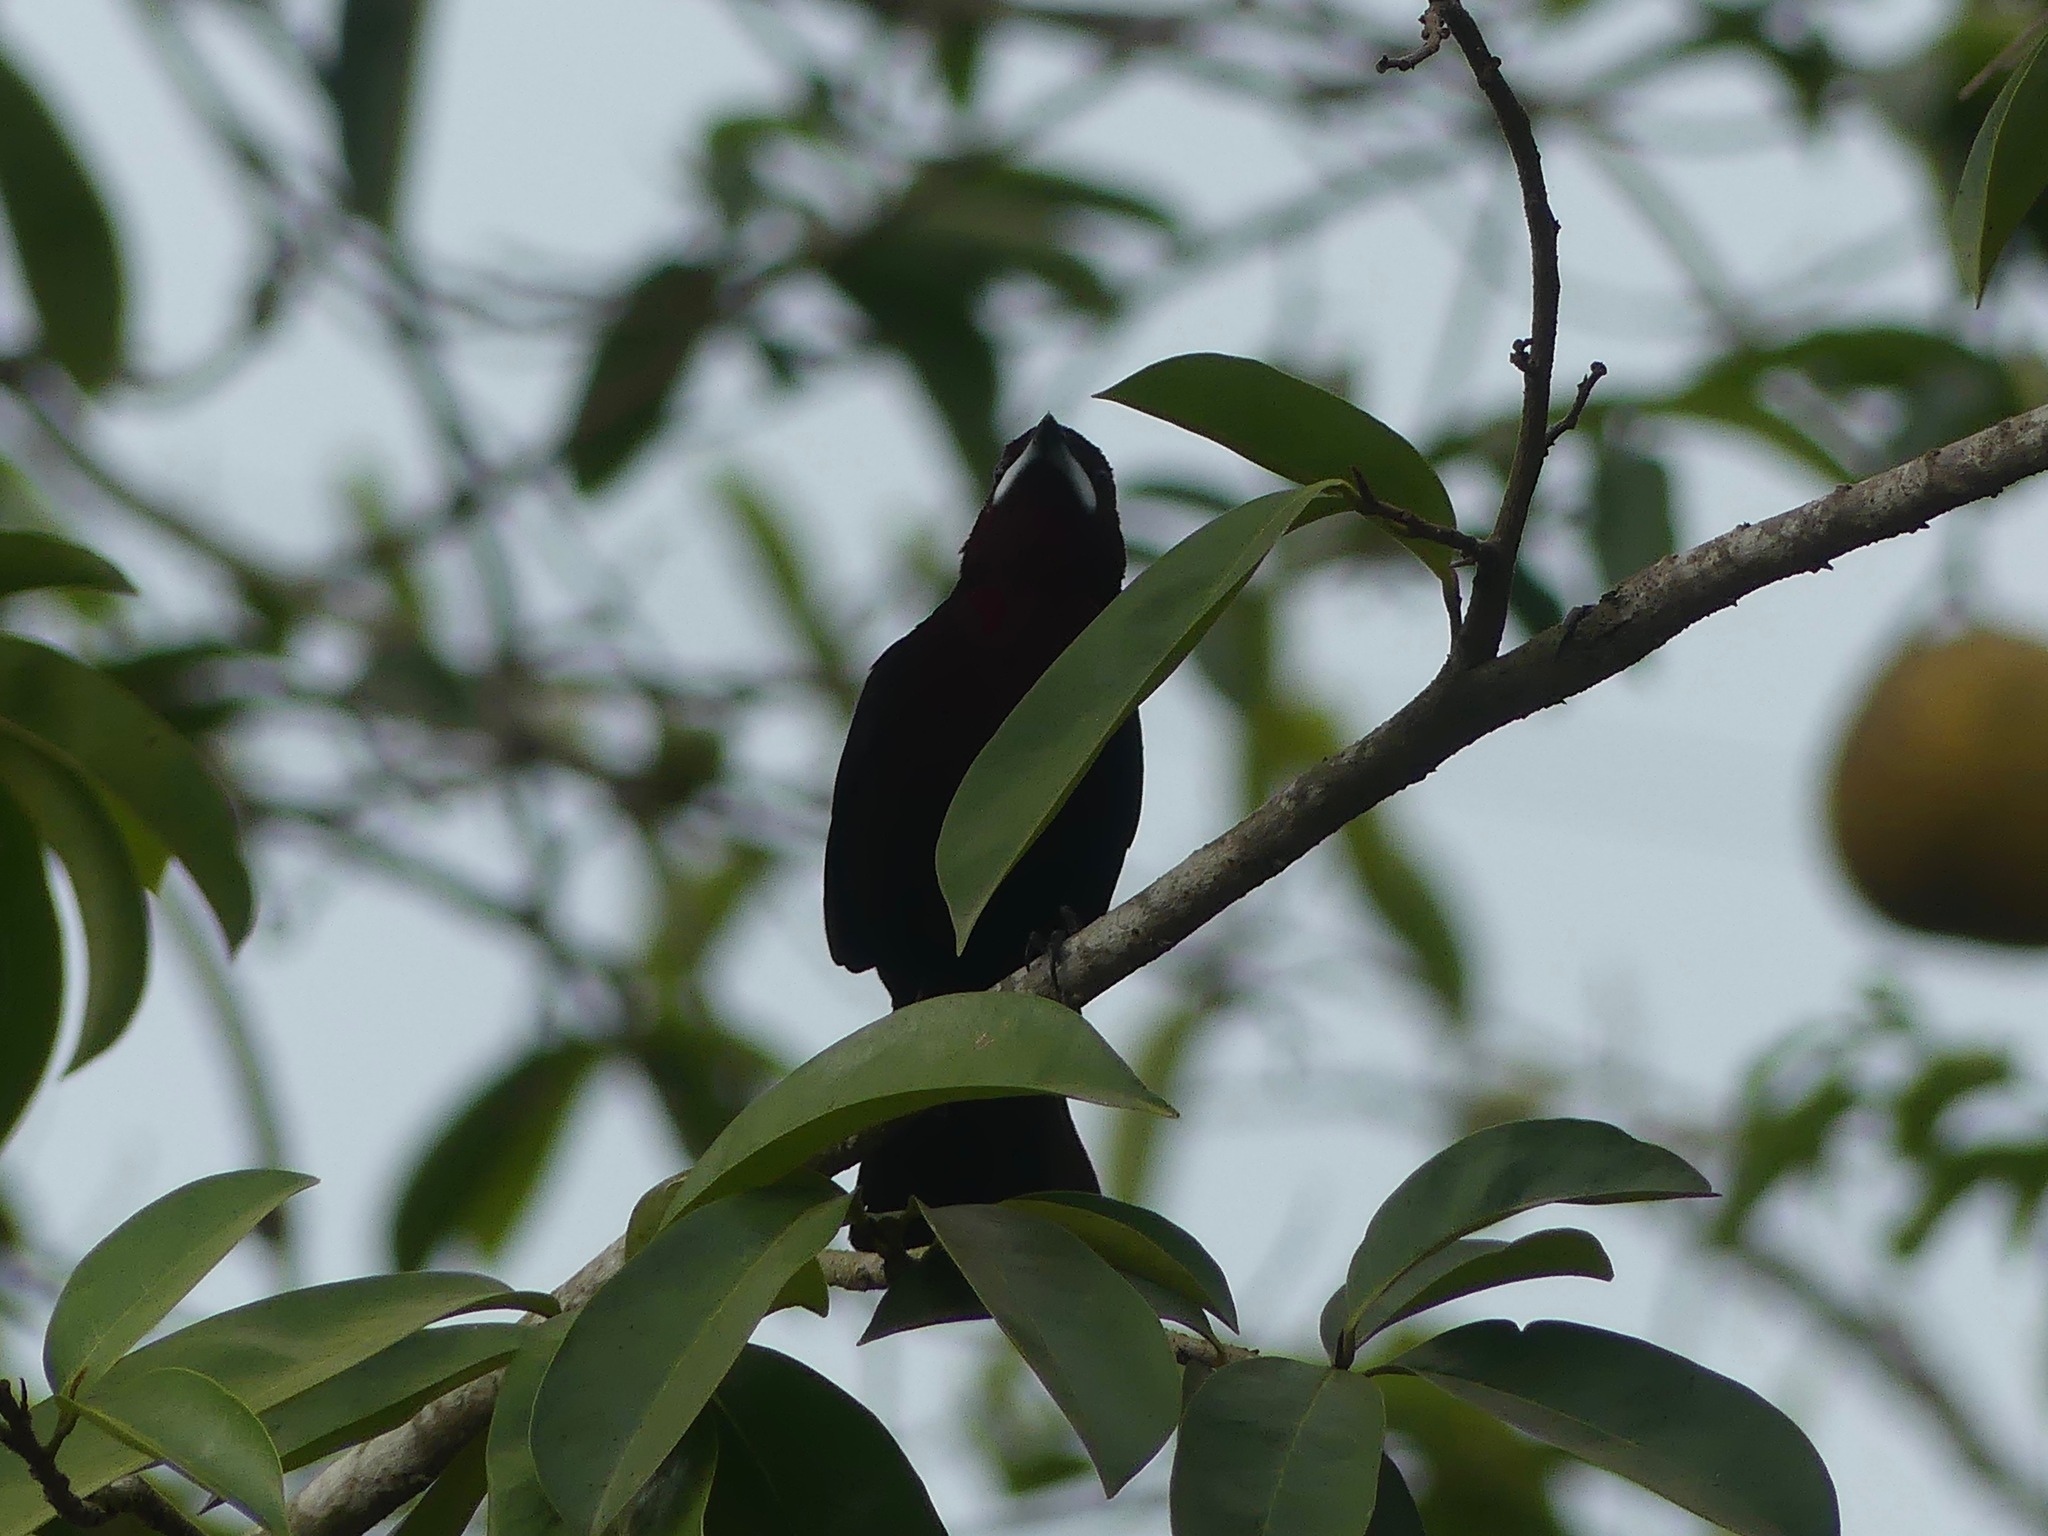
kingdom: Animalia
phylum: Chordata
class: Aves
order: Passeriformes
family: Thraupidae
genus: Ramphocelus
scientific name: Ramphocelus carbo
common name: Silver-beaked tanager
